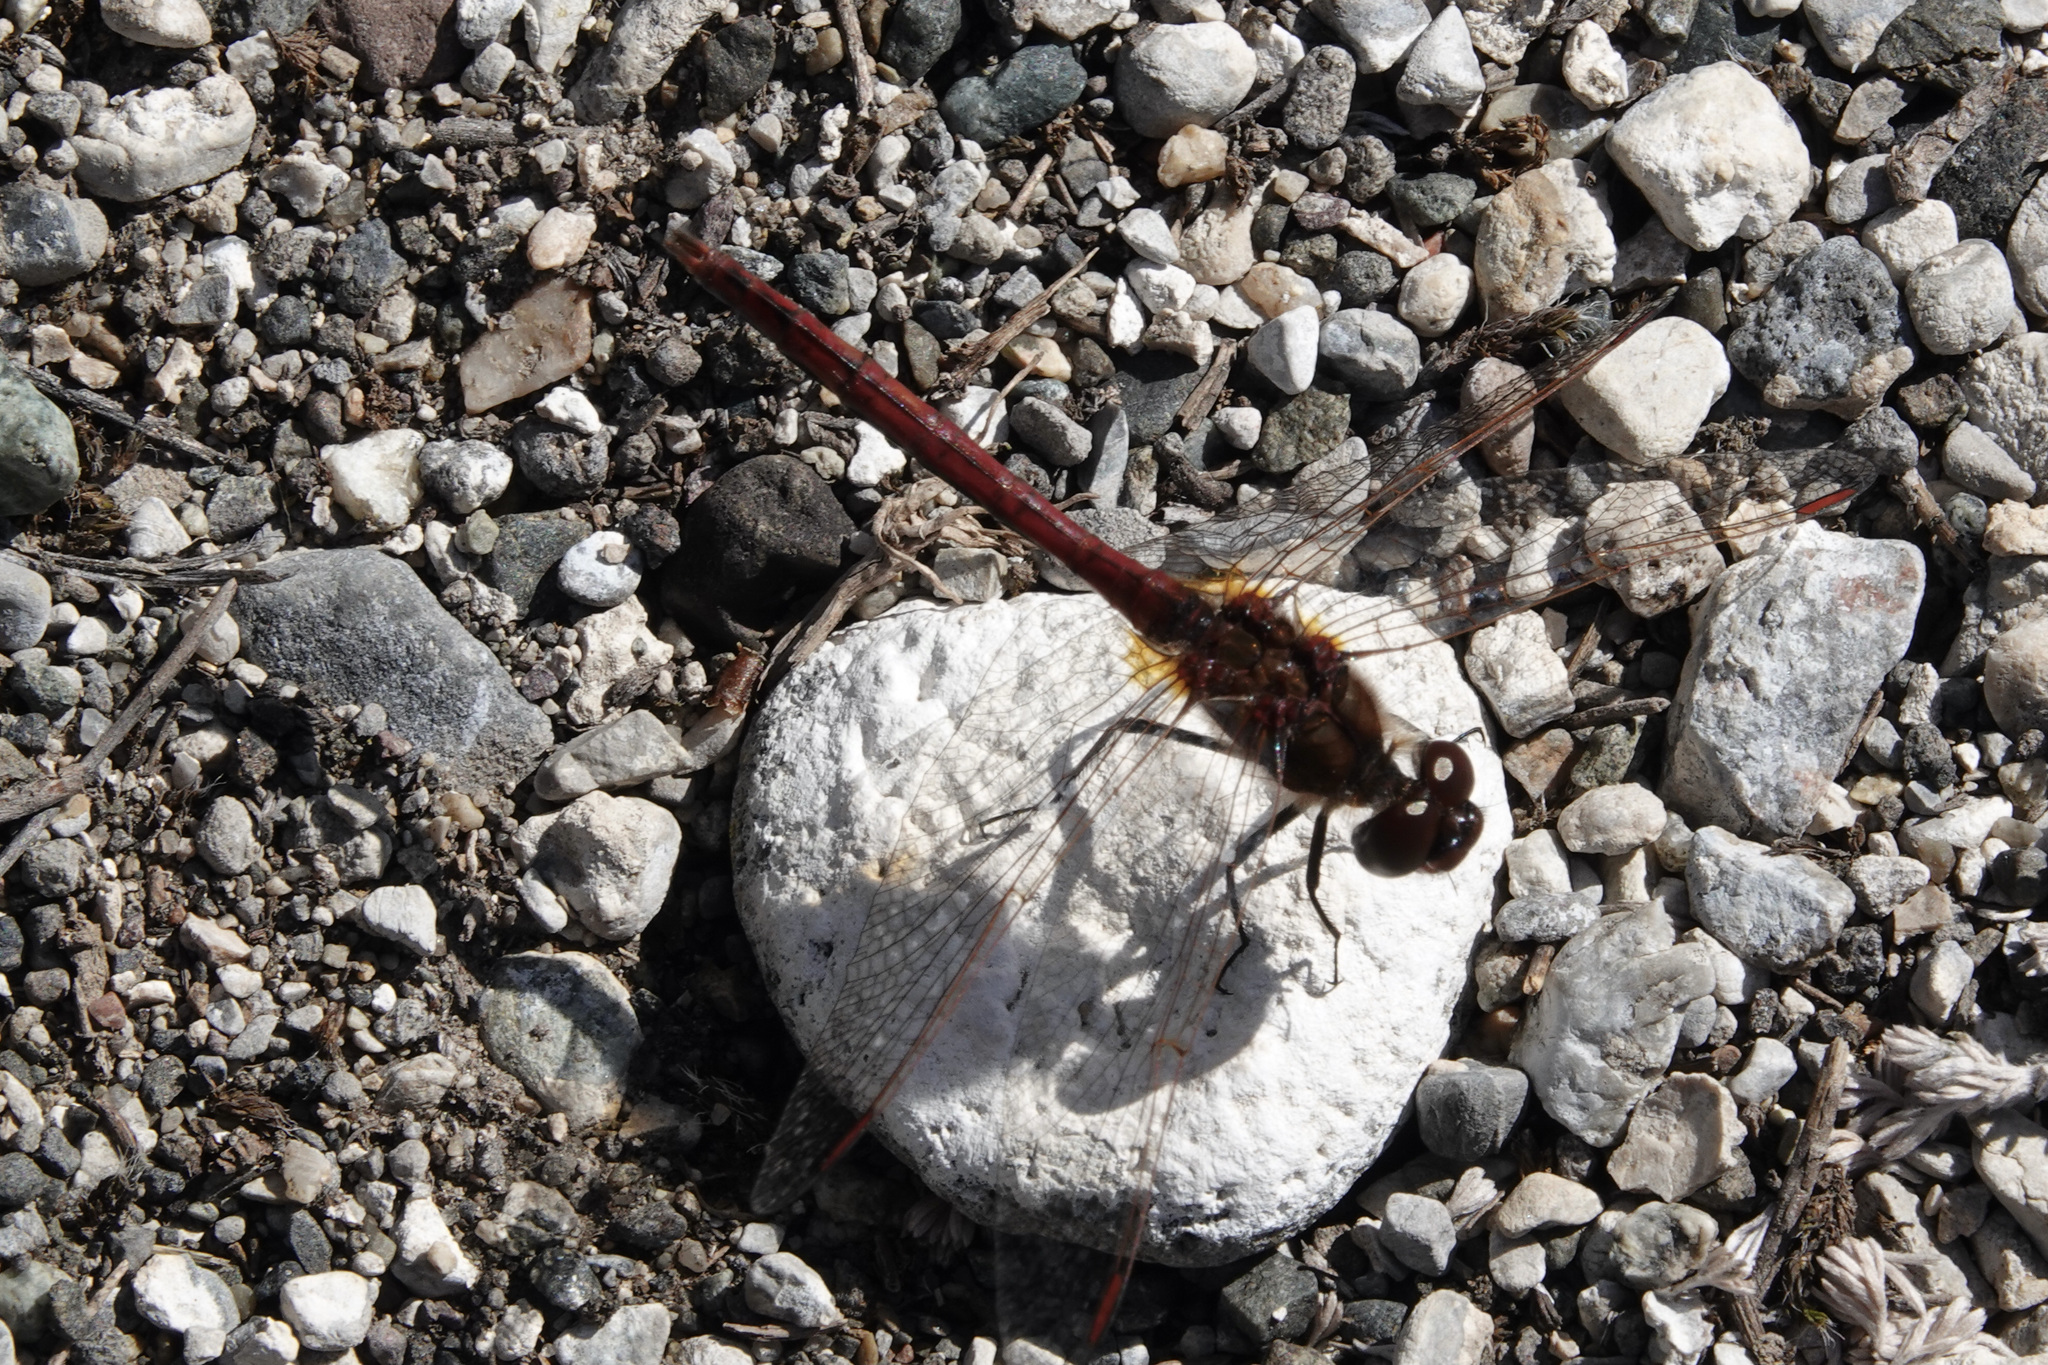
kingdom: Animalia
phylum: Arthropoda
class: Insecta
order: Odonata
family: Libellulidae
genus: Sympetrum
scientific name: Sympetrum costiferum
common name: Saffron-winged meadowhawk
